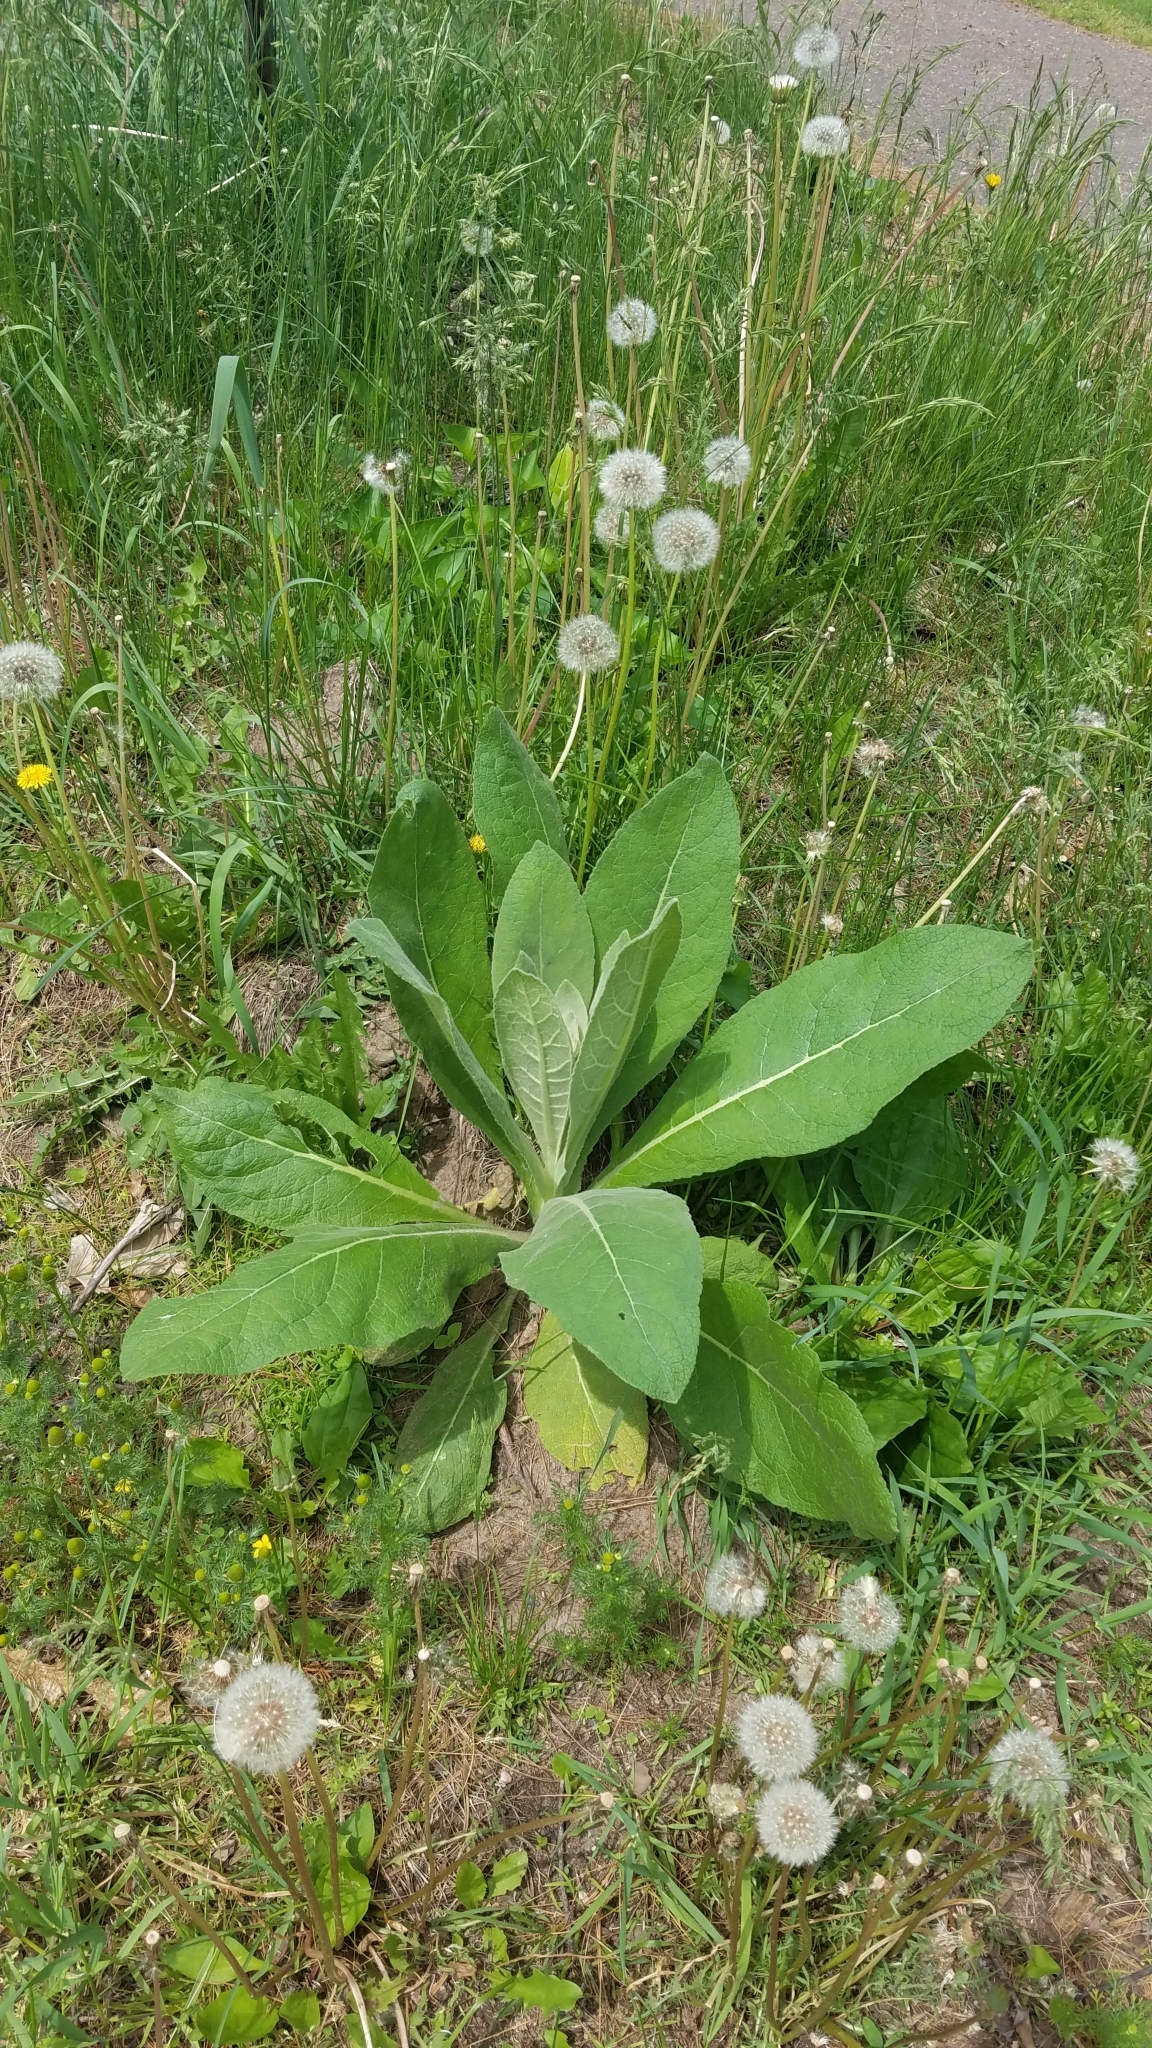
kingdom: Plantae
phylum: Tracheophyta
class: Magnoliopsida
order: Lamiales
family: Scrophulariaceae
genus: Verbascum
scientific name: Verbascum thapsus
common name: Common mullein
